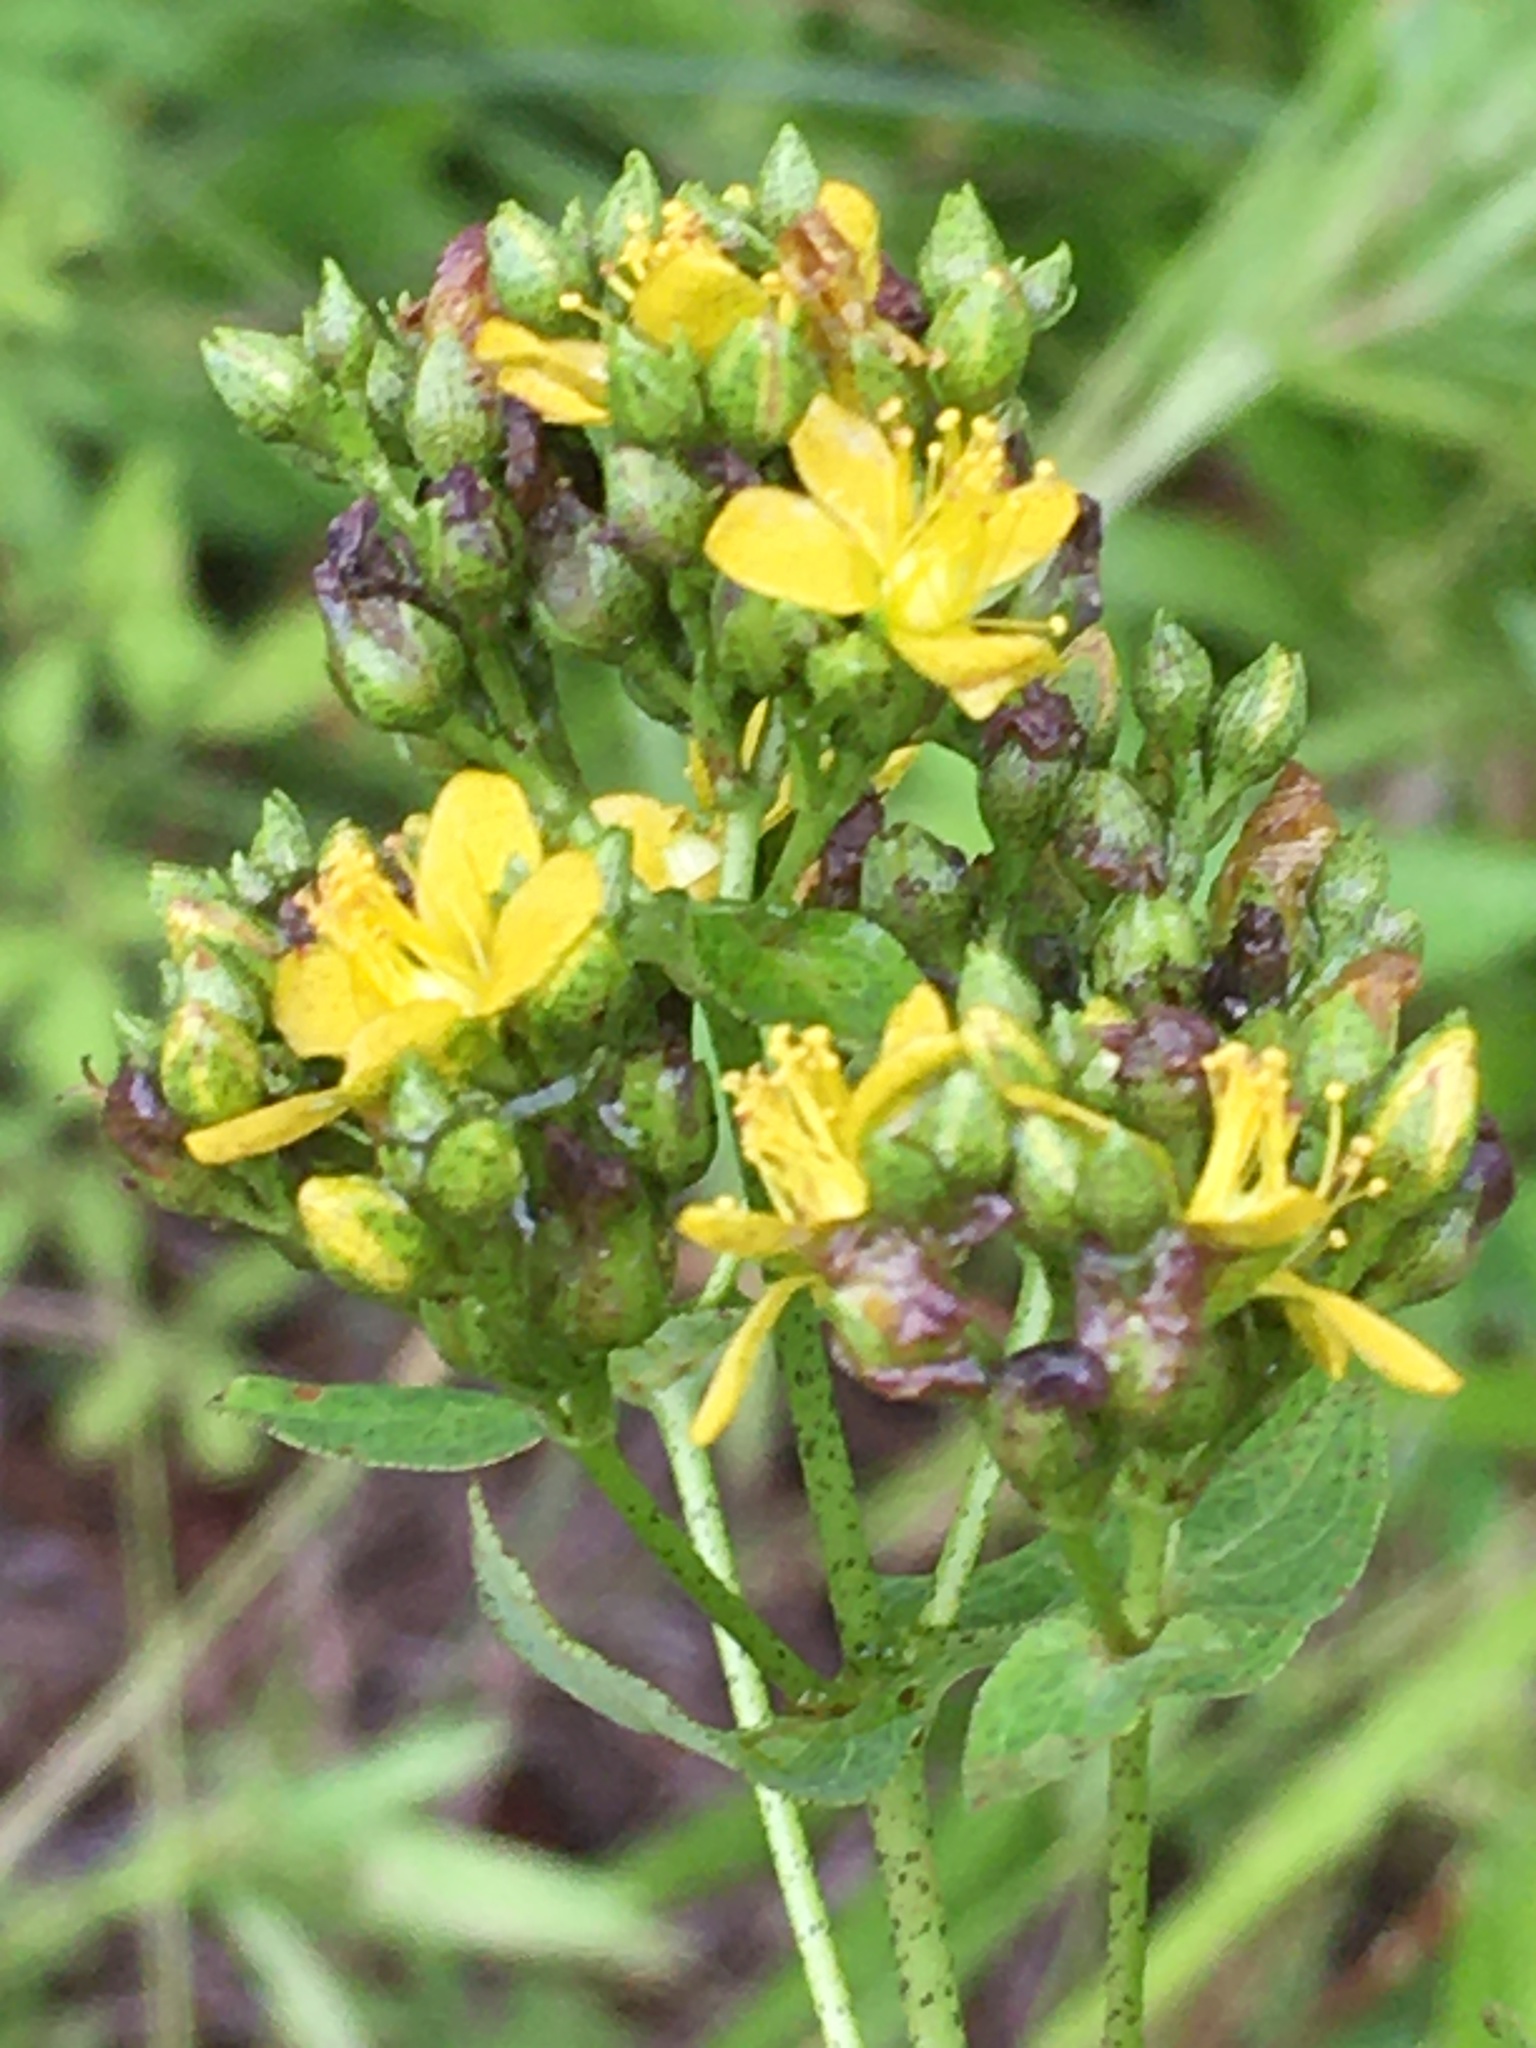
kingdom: Plantae
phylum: Tracheophyta
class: Magnoliopsida
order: Malpighiales
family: Hypericaceae
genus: Hypericum
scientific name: Hypericum punctatum
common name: Spotted st. john's-wort
